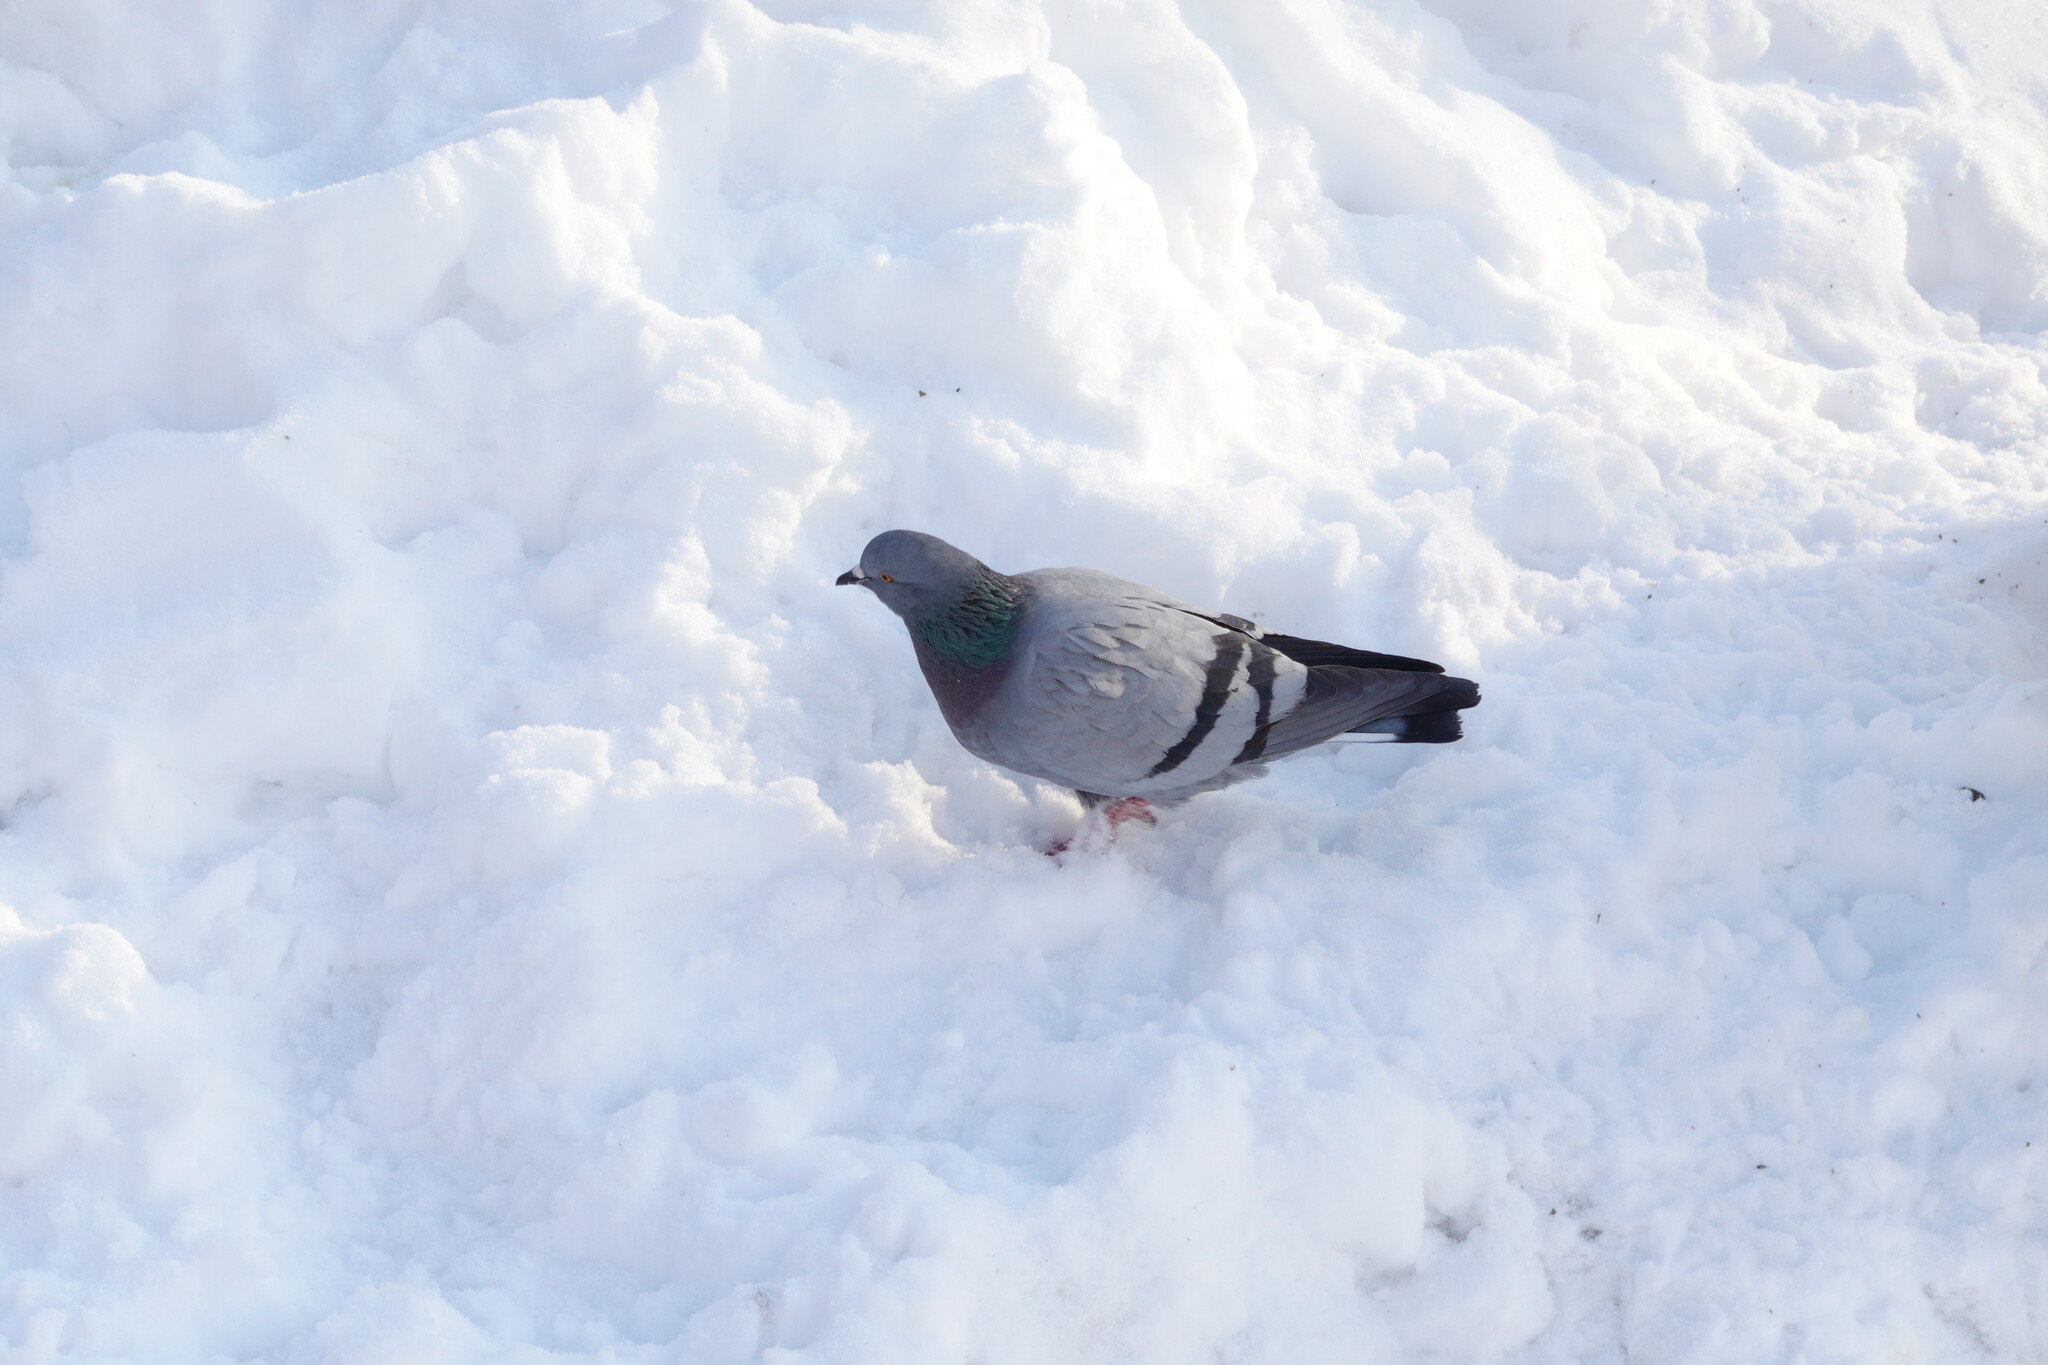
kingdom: Animalia
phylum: Chordata
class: Aves
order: Columbiformes
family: Columbidae
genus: Columba
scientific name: Columba livia
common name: Rock pigeon
